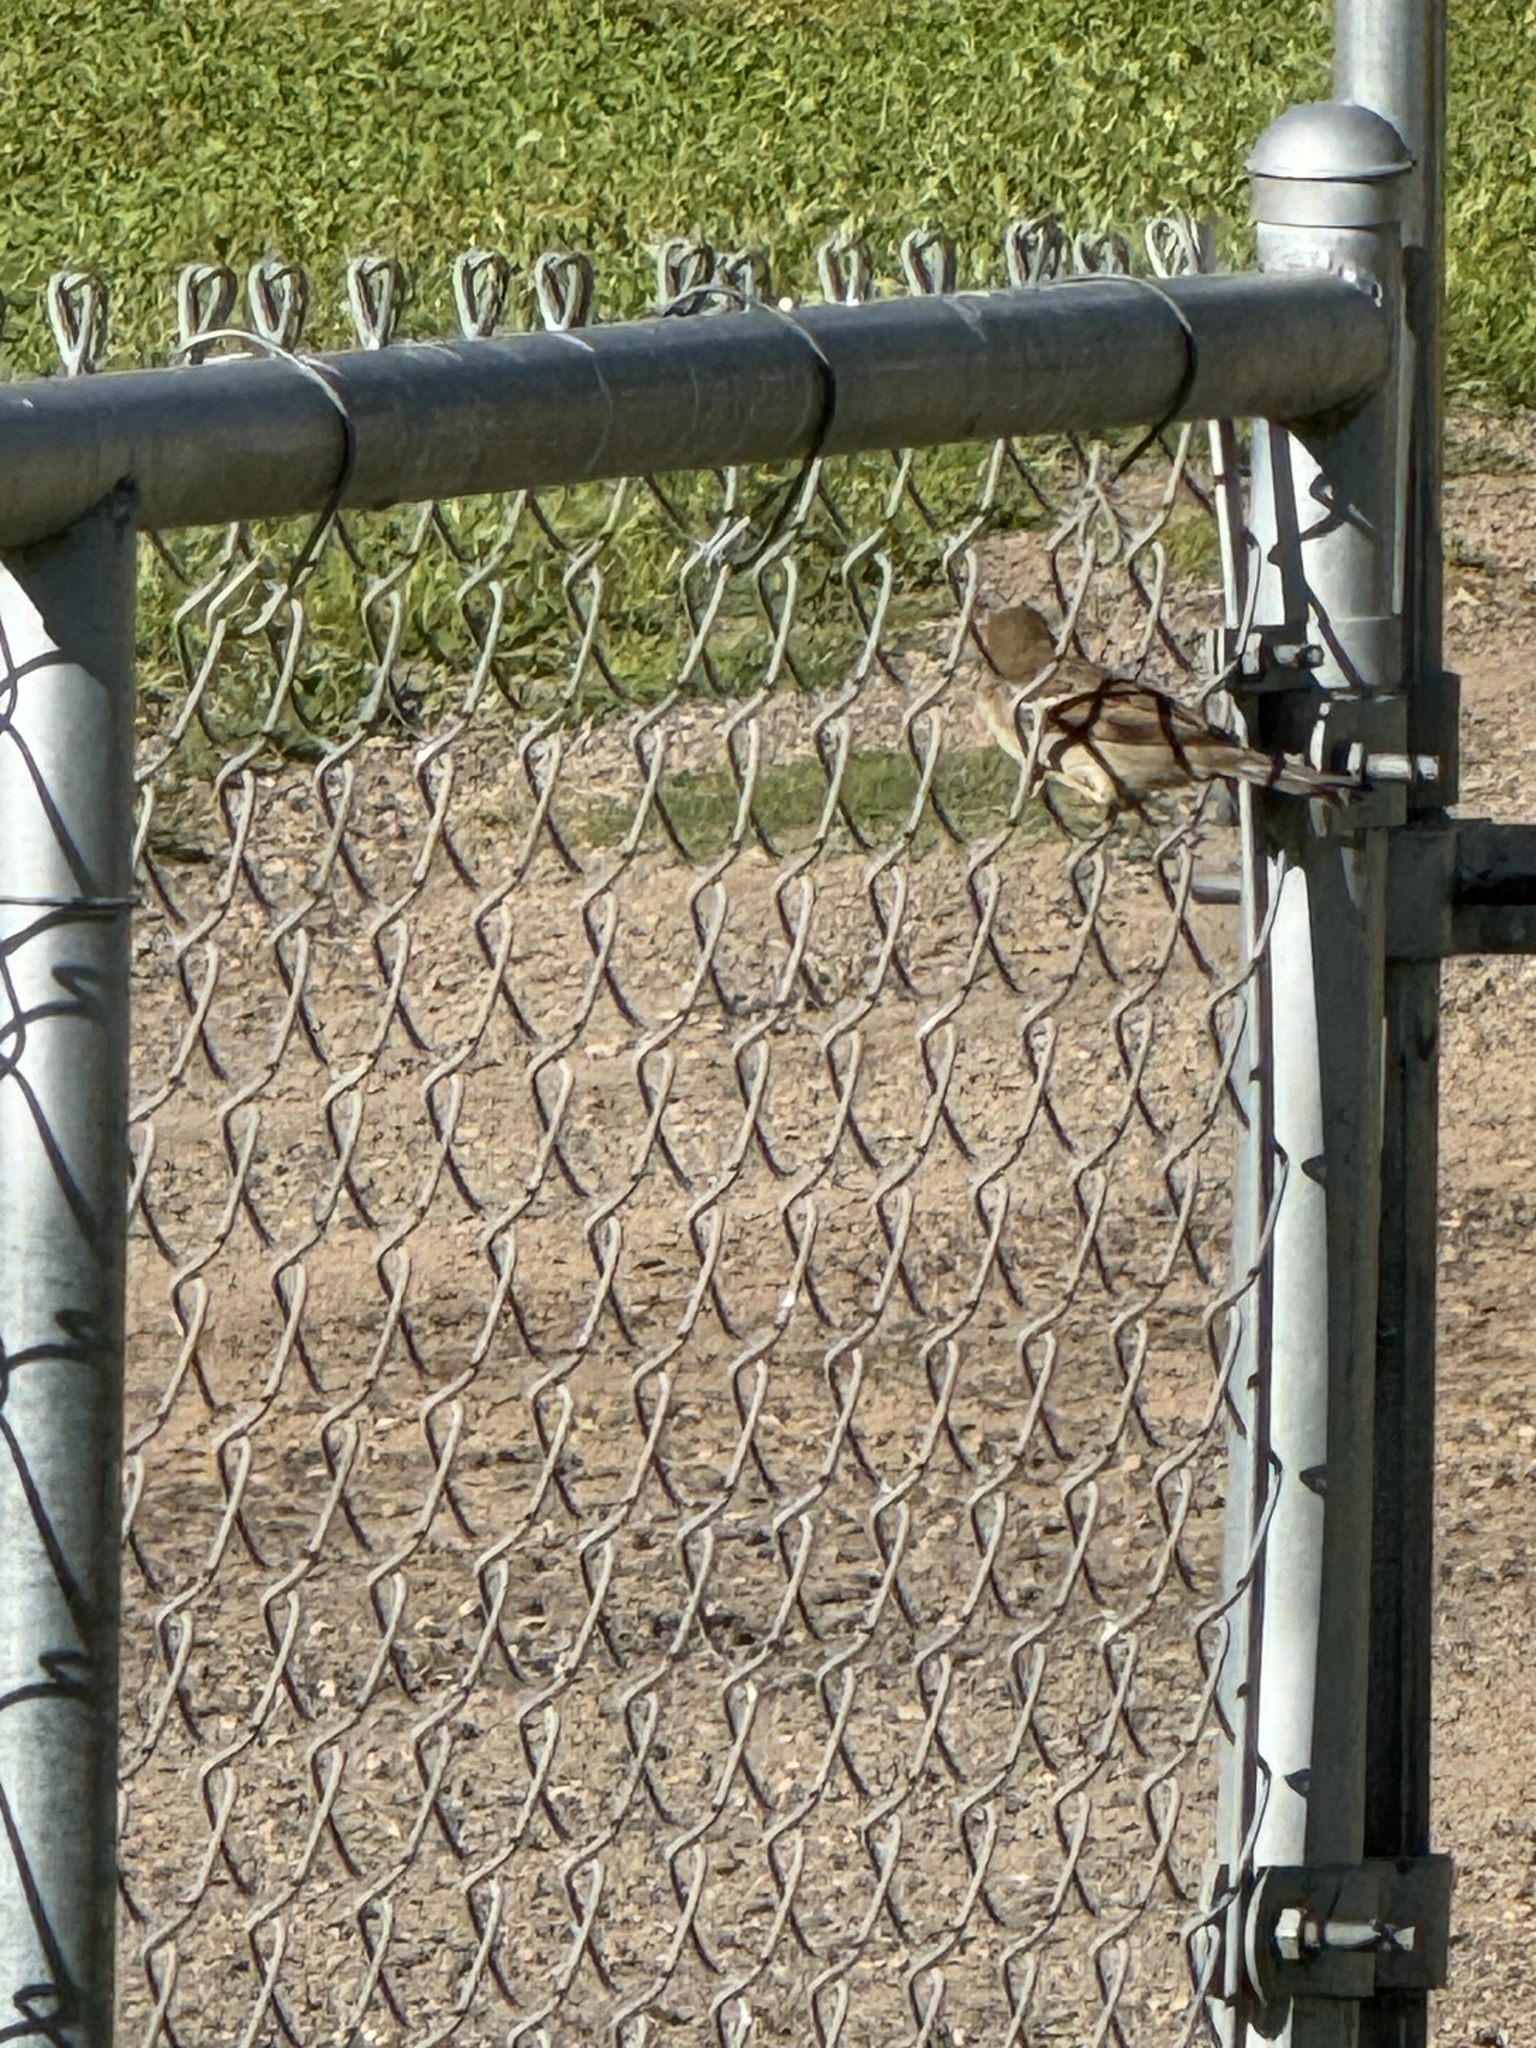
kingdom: Animalia
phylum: Chordata
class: Aves
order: Passeriformes
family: Passeridae
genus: Passer
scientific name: Passer domesticus
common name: House sparrow
